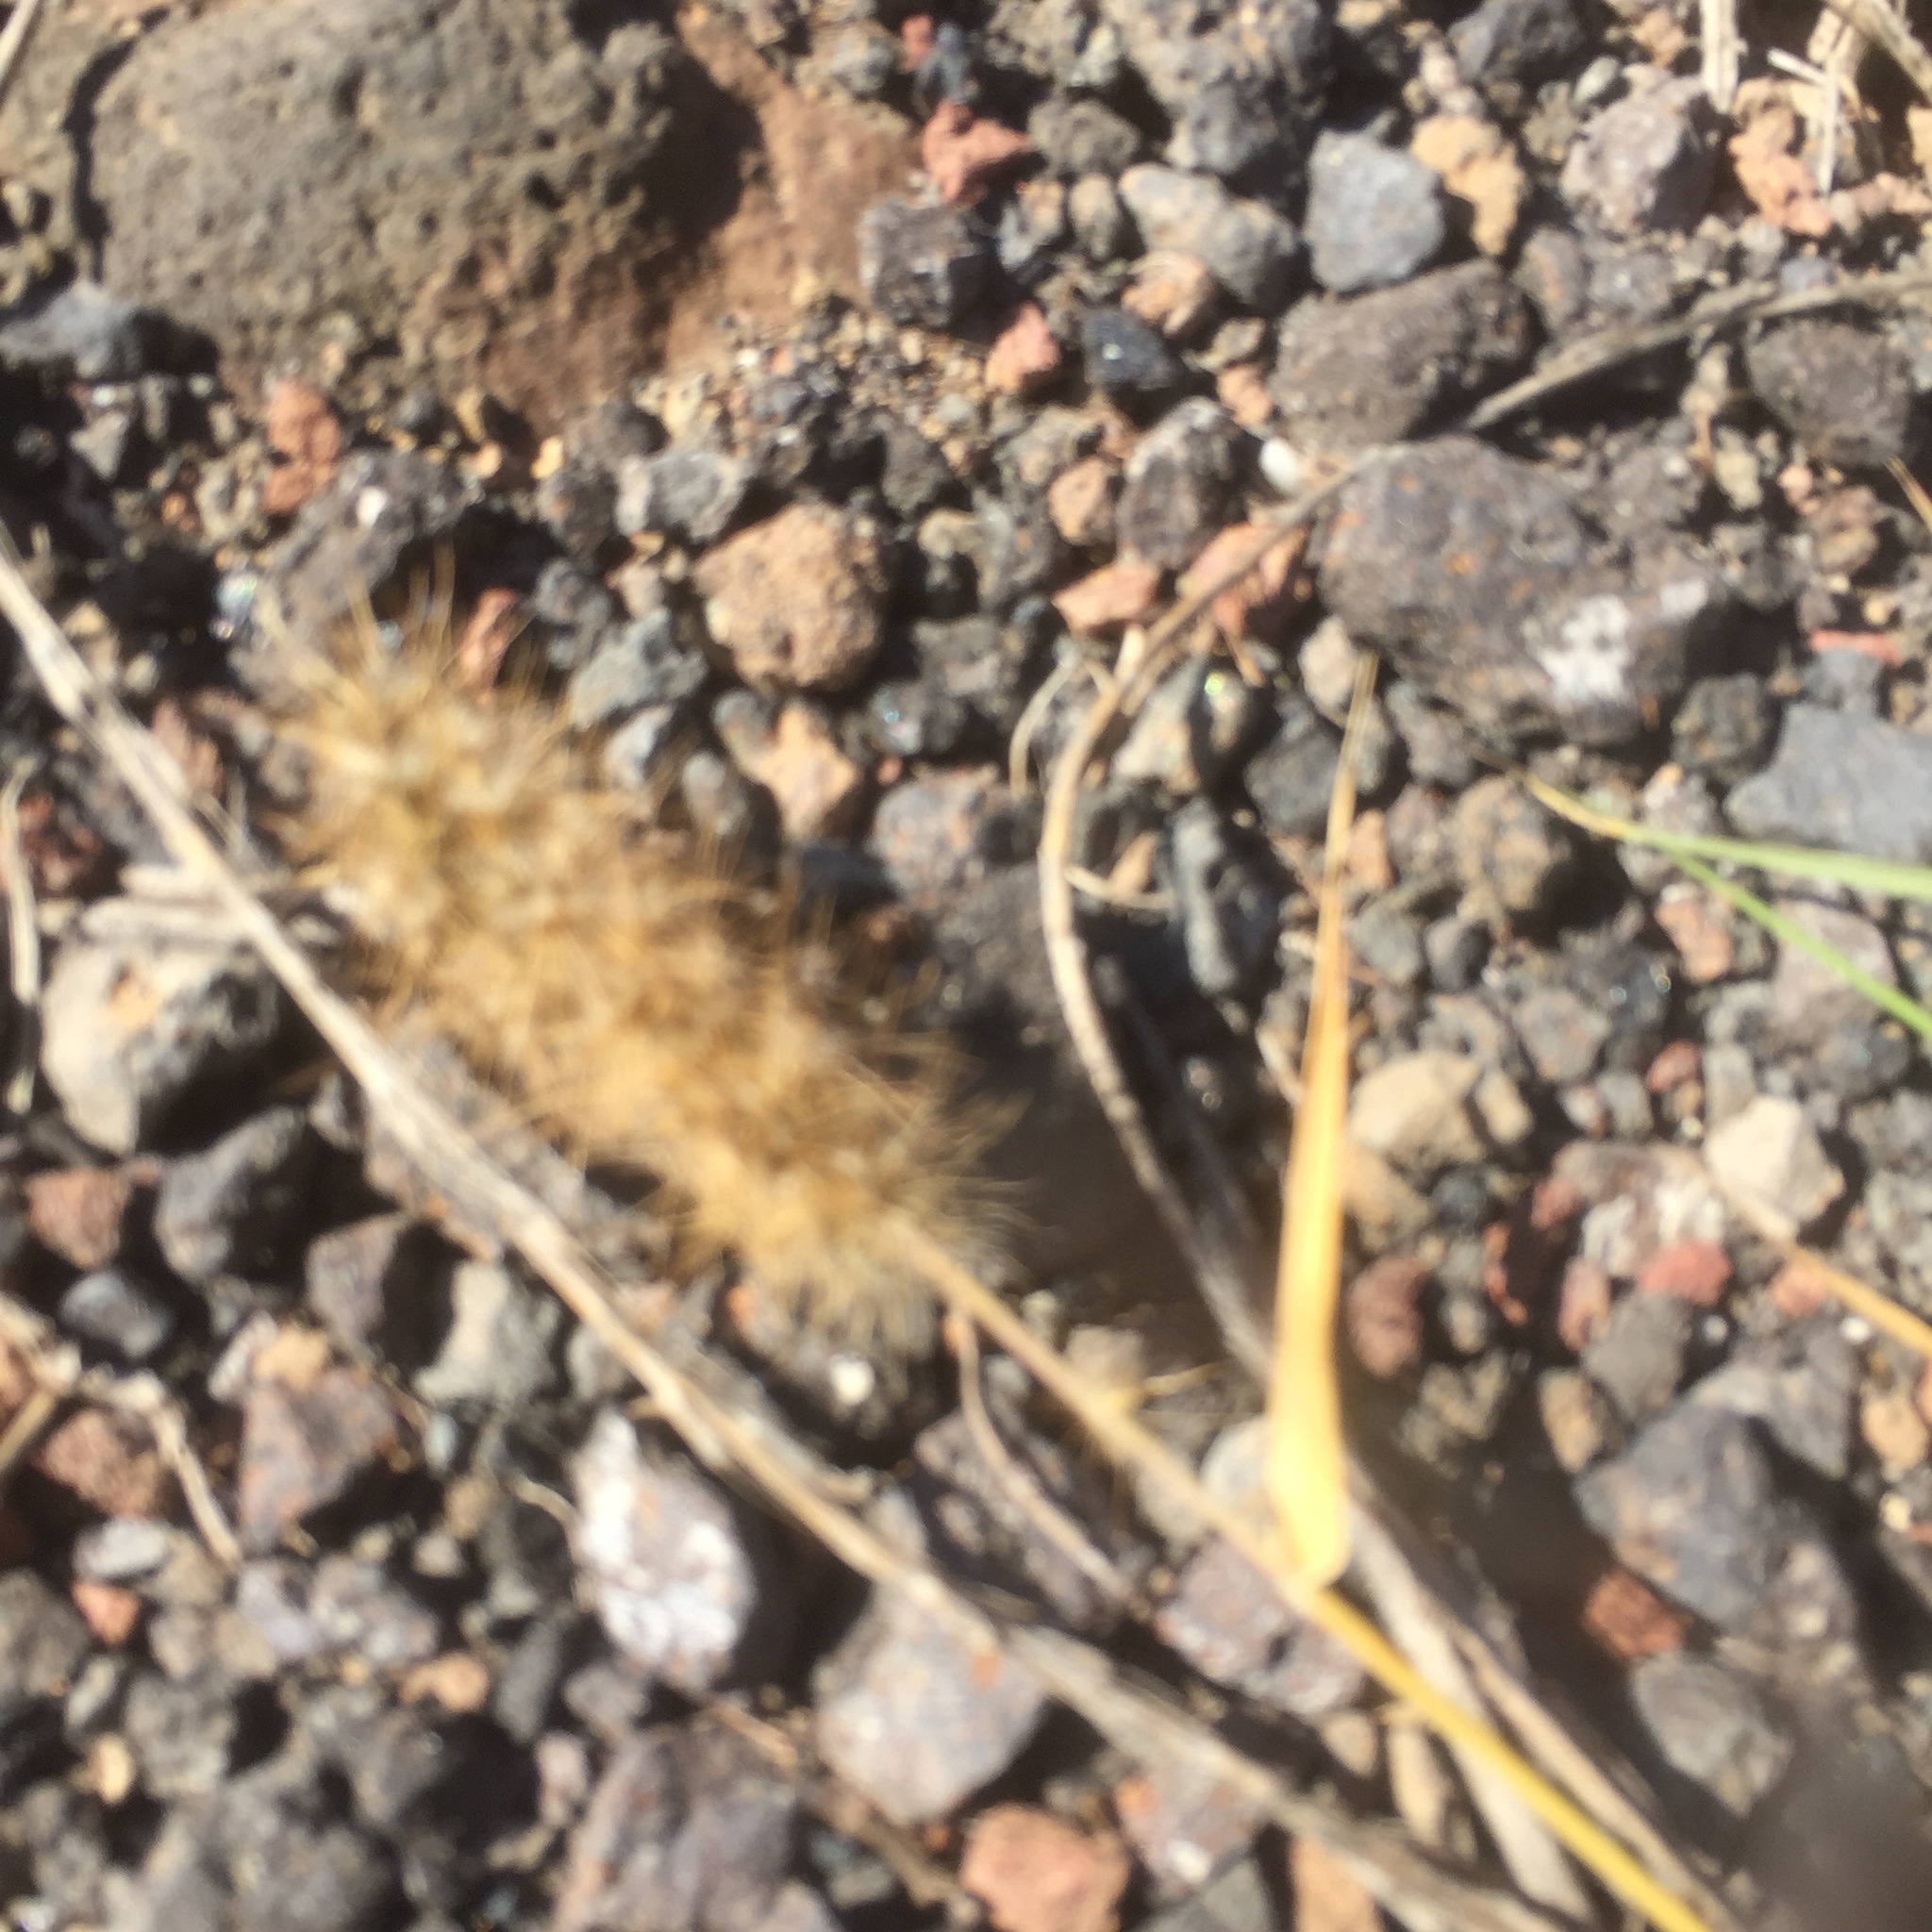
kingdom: Plantae
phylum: Tracheophyta
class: Liliopsida
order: Poales
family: Poaceae
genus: Cenchrus
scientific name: Cenchrus ciliaris
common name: Buffelgrass
